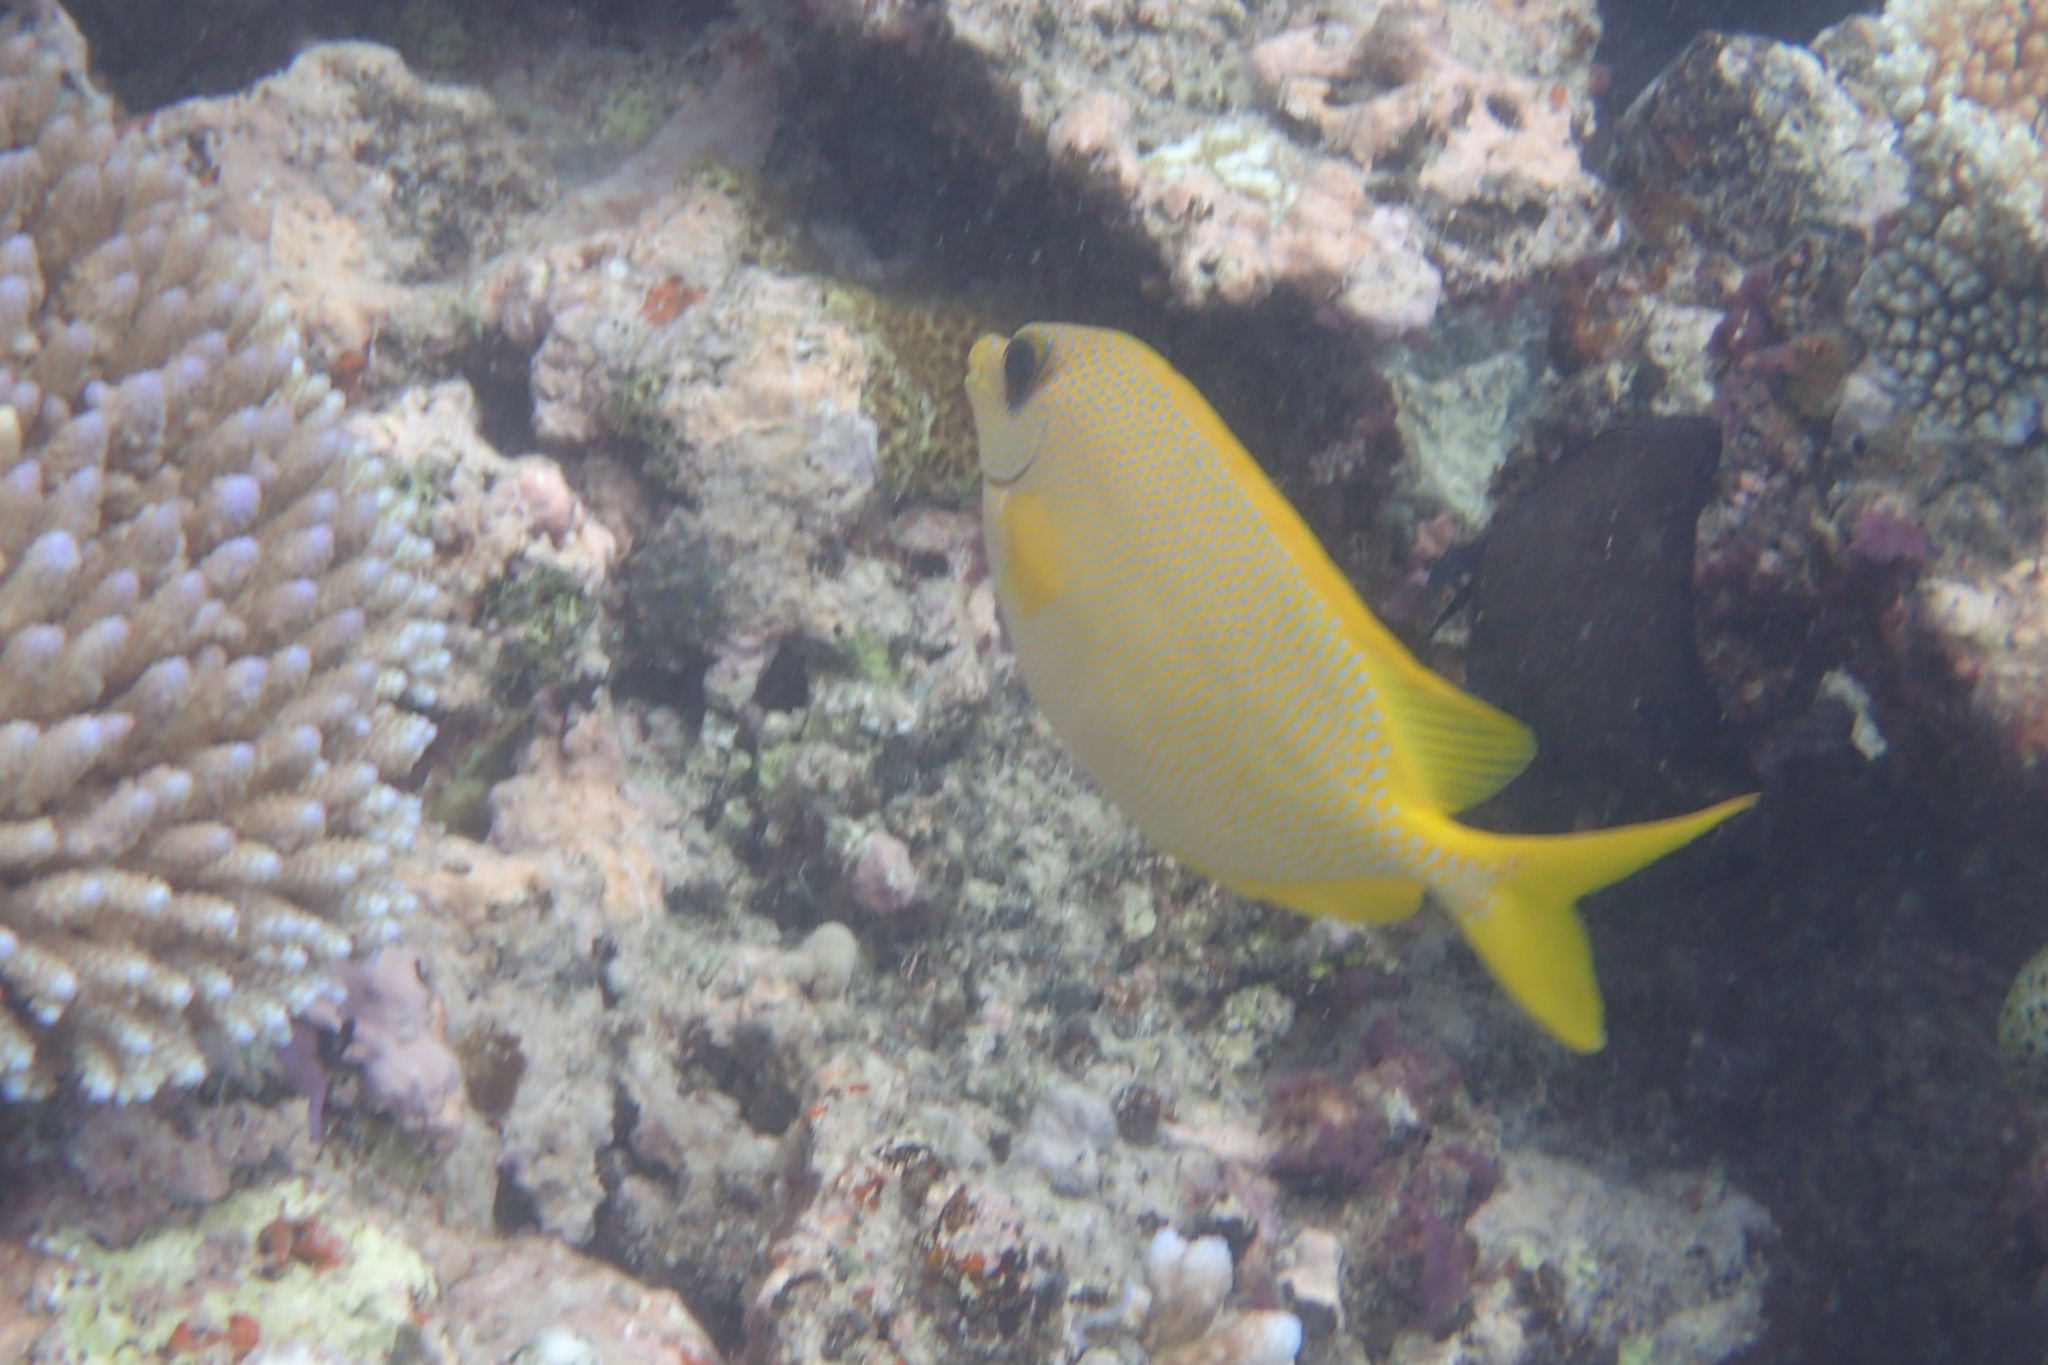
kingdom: Animalia
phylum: Chordata
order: Perciformes
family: Siganidae
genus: Siganus
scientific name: Siganus corallinus
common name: Coral rabbitfish
